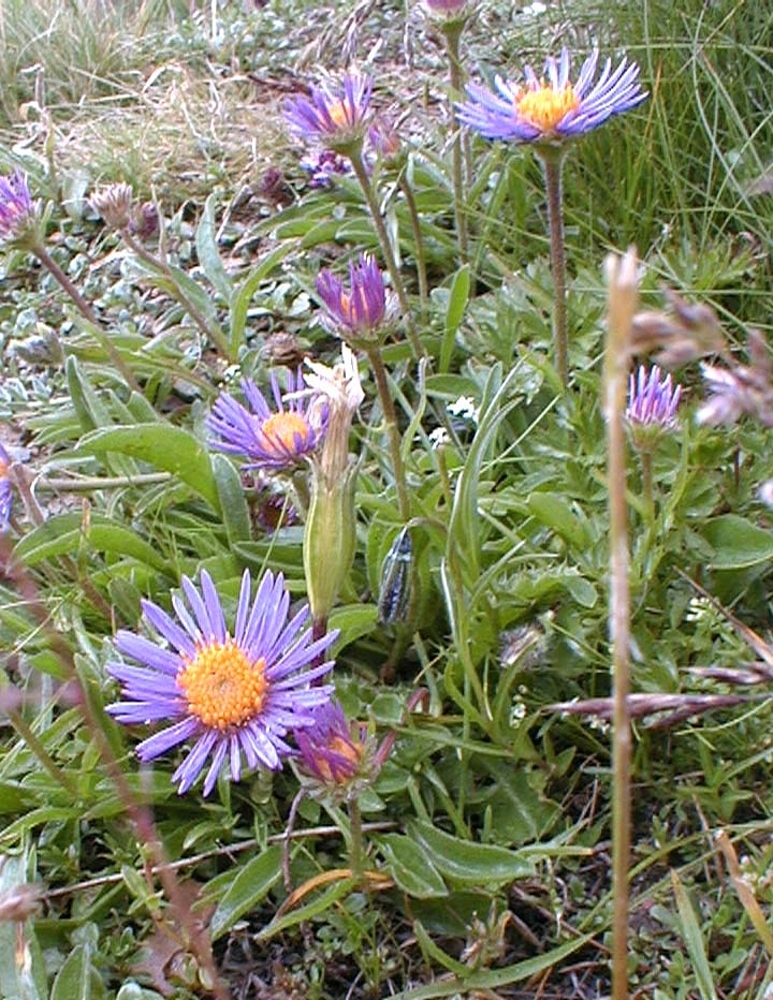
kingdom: Plantae
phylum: Tracheophyta
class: Magnoliopsida
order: Asterales
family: Asteraceae
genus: Aster
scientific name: Aster alpinus
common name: Alpine aster
